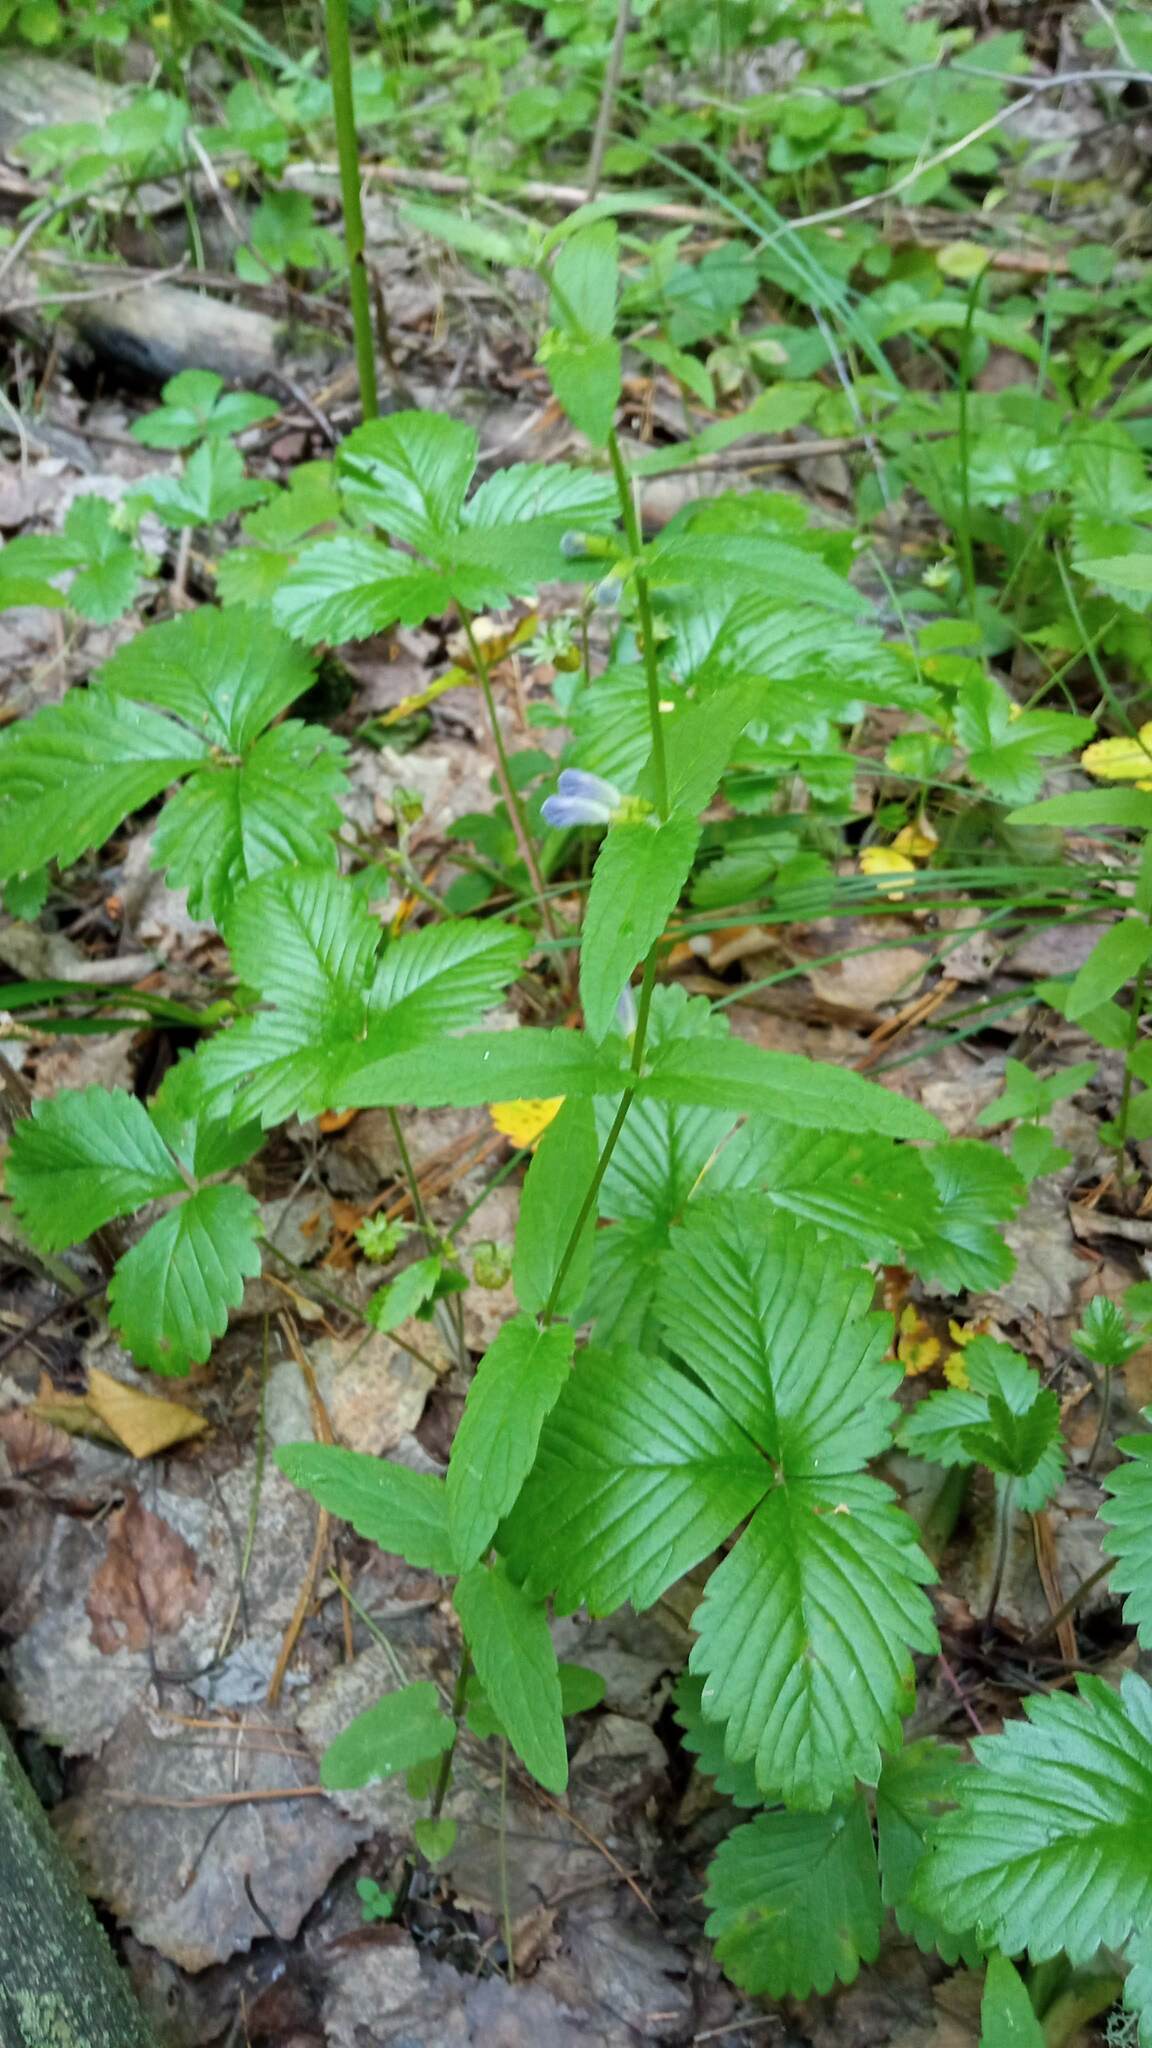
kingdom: Plantae
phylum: Tracheophyta
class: Magnoliopsida
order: Lamiales
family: Lamiaceae
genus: Scutellaria
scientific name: Scutellaria galericulata
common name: Skullcap
